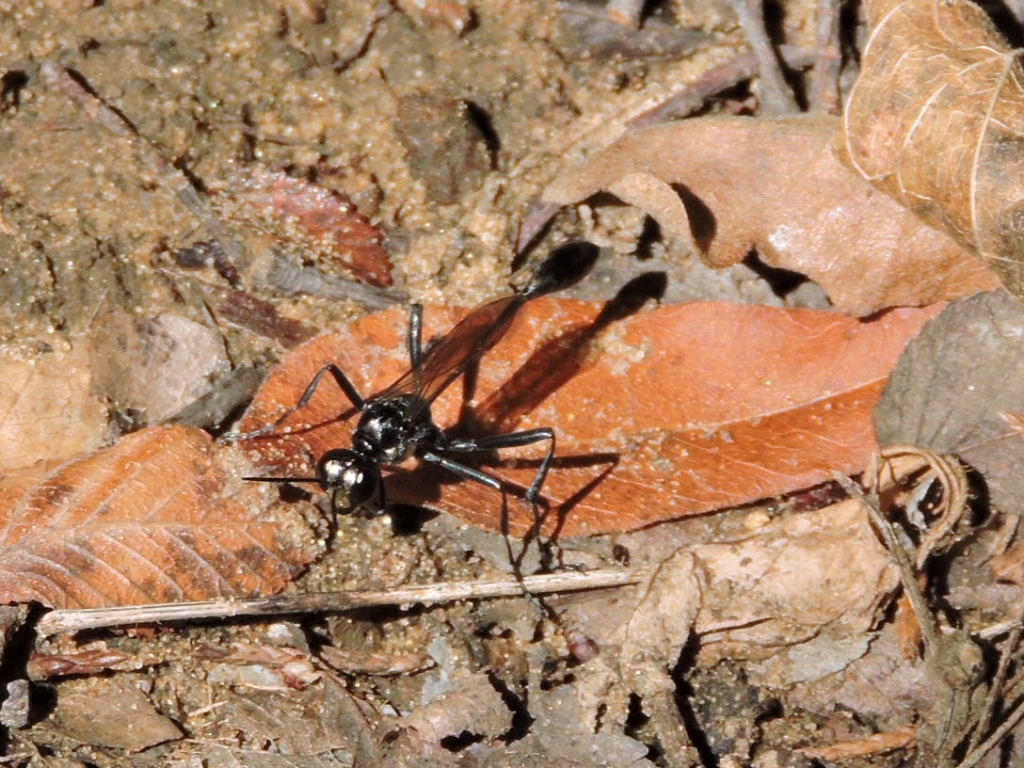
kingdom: Animalia
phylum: Arthropoda
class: Insecta
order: Hymenoptera
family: Sphecidae
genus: Eremnophila
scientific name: Eremnophila aureonotata
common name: Gold-marked thread-waisted wasp
